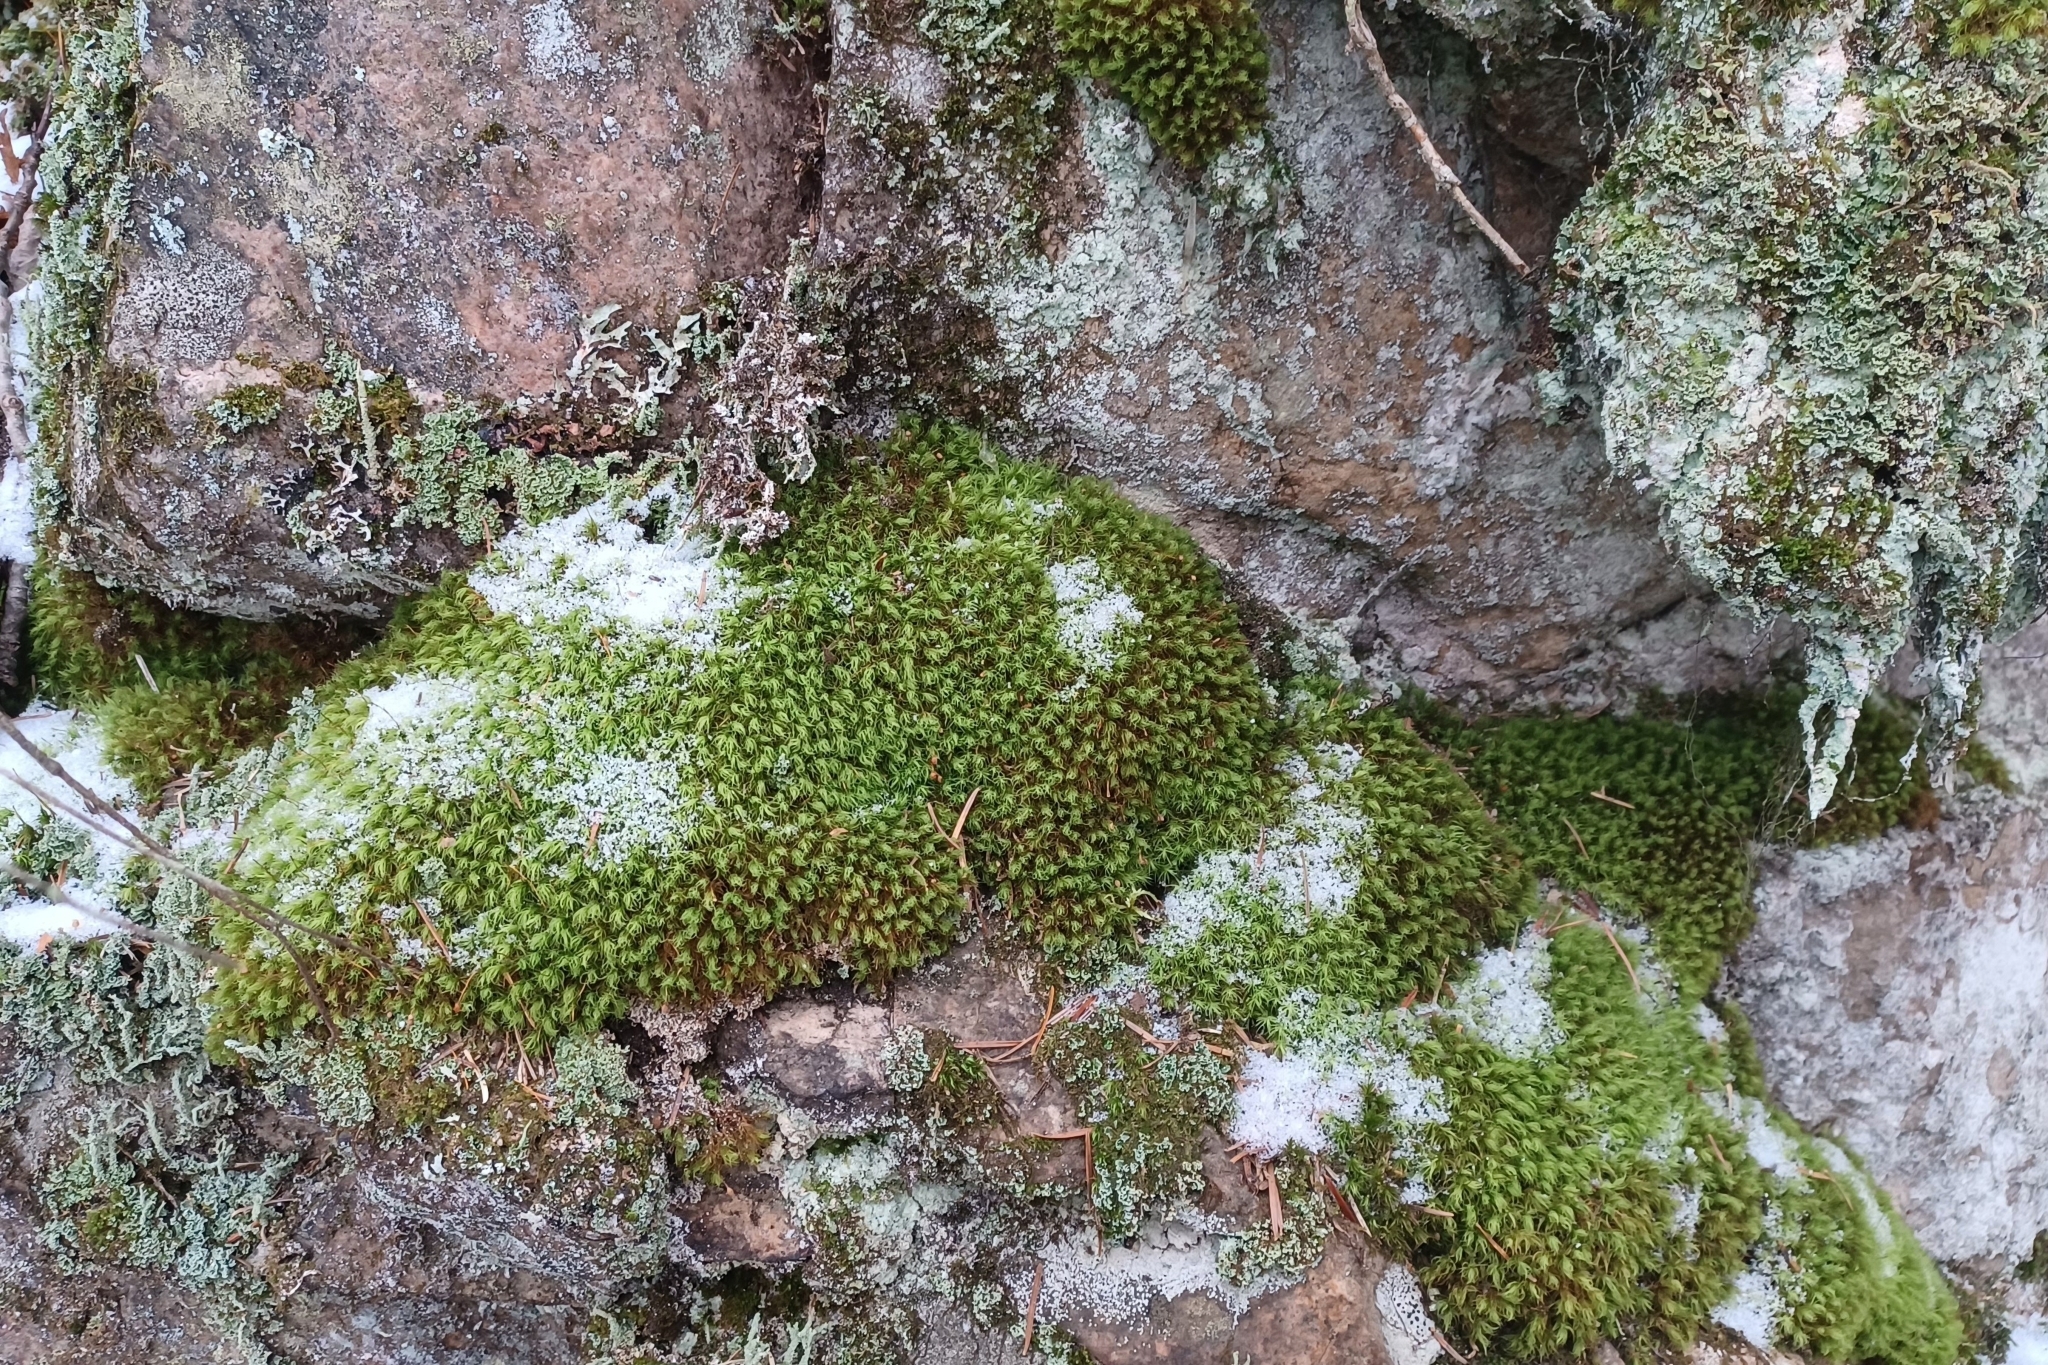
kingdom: Plantae
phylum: Bryophyta
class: Bryopsida
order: Bartramiales
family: Bartramiaceae
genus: Bartramia
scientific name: Bartramia ithyphylla
